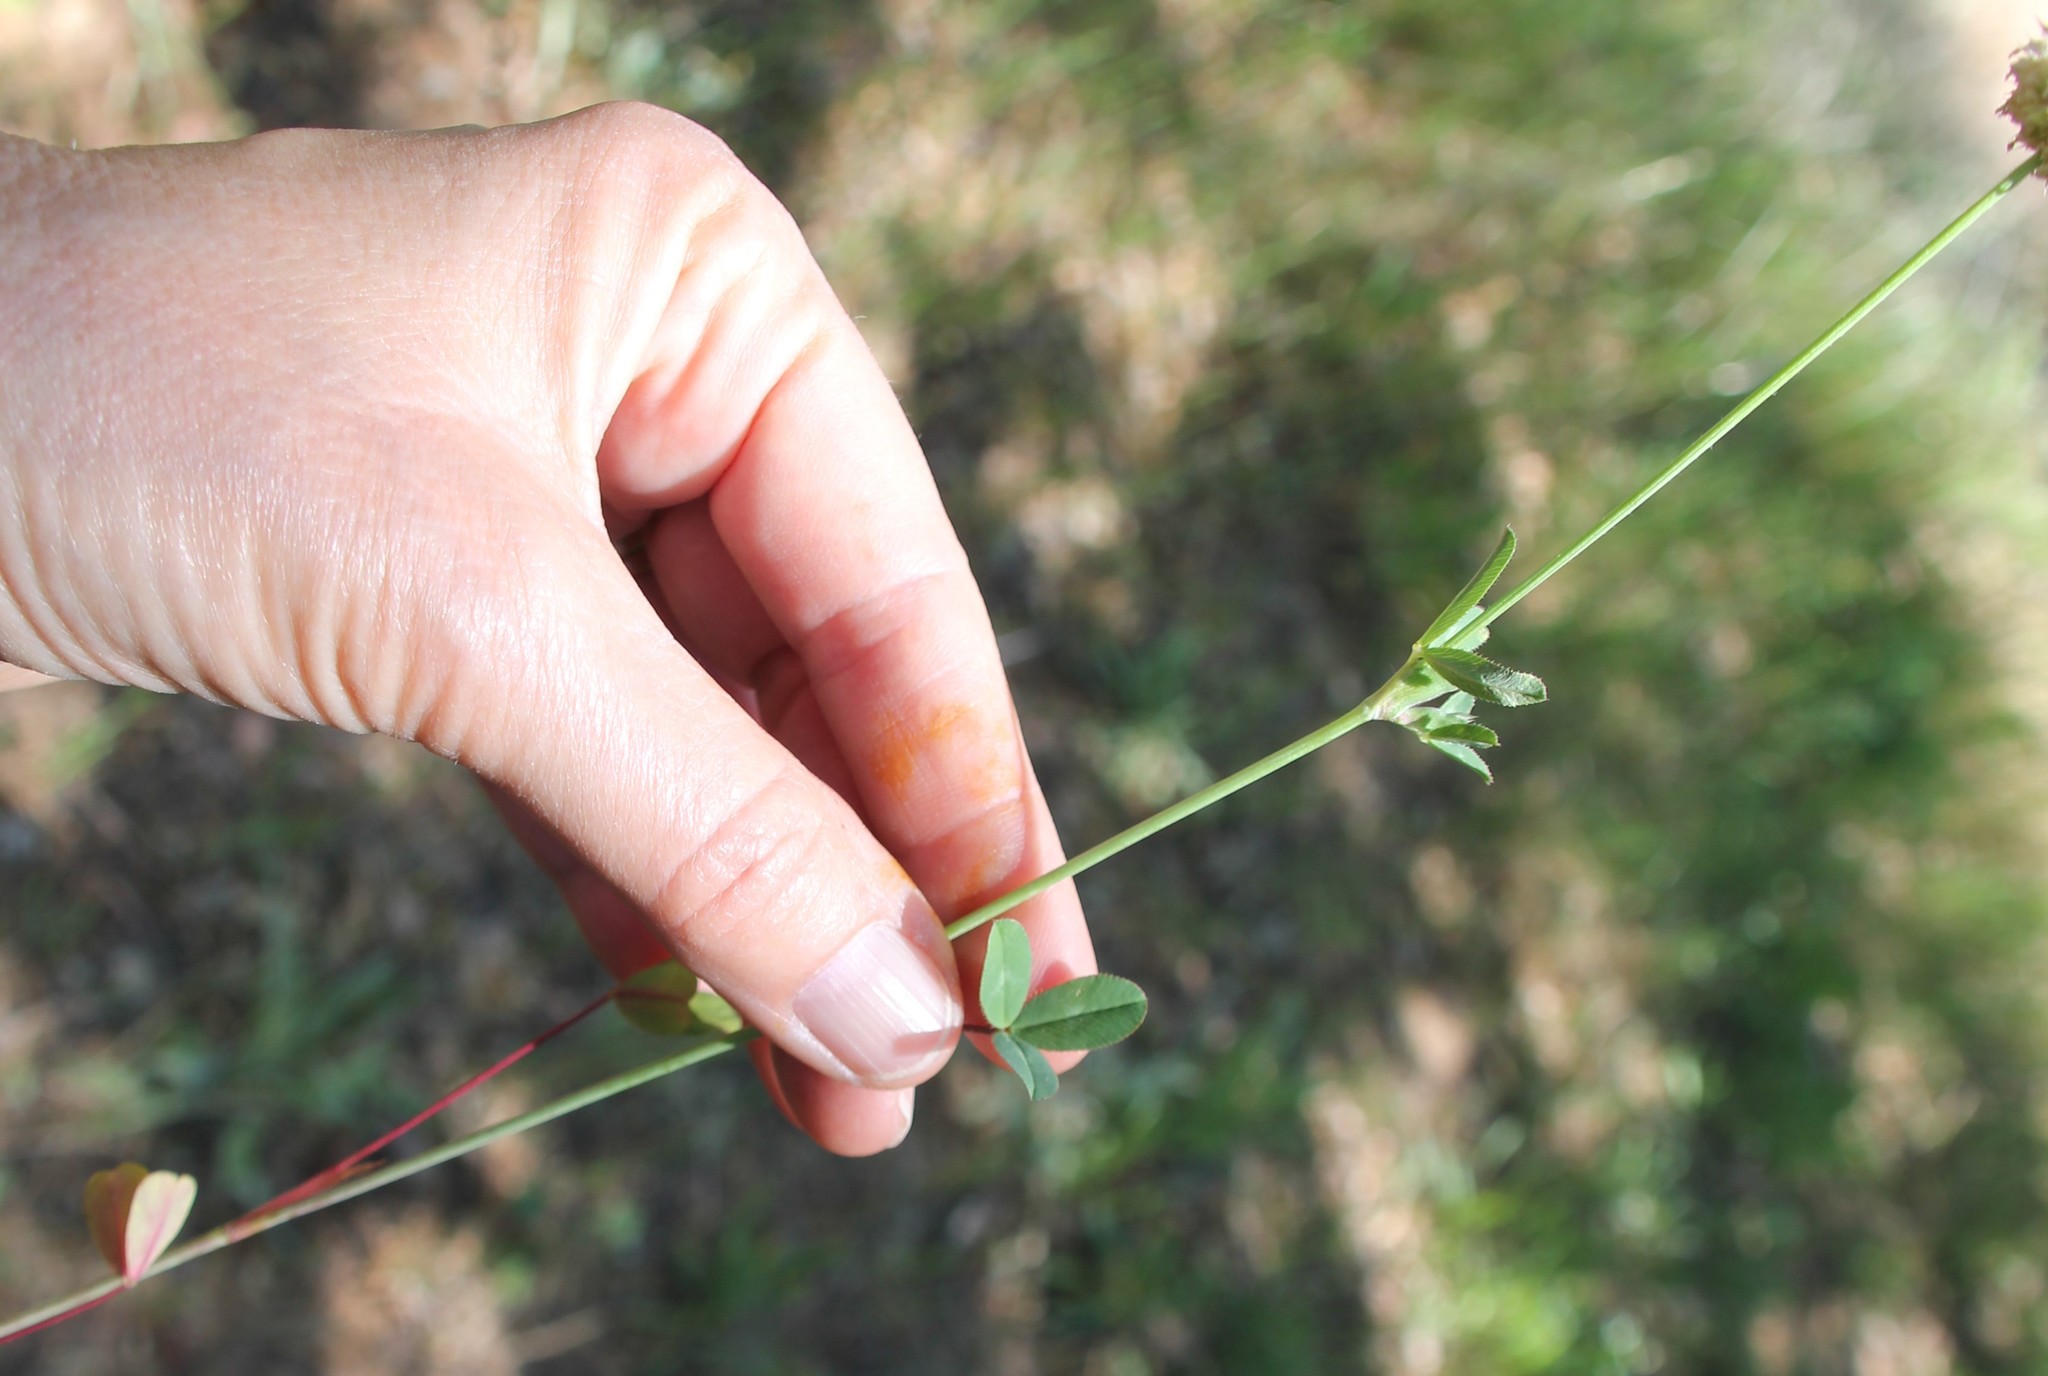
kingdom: Plantae
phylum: Tracheophyta
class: Magnoliopsida
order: Fabales
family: Fabaceae
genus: Trifolium
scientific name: Trifolium ciliolatum
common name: Foothill clover
